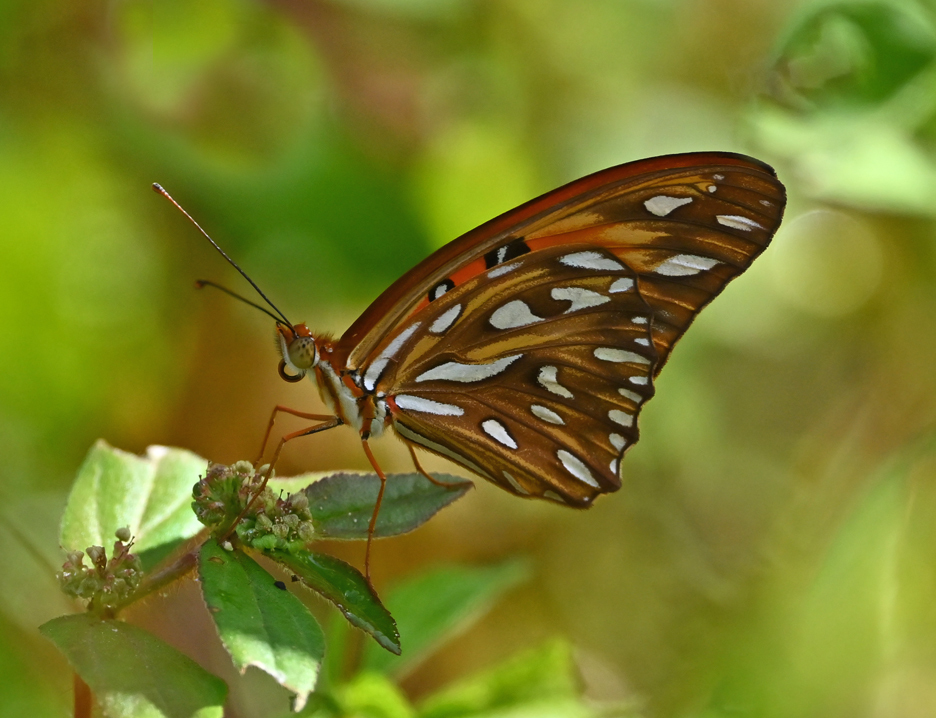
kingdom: Animalia
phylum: Arthropoda
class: Insecta
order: Lepidoptera
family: Nymphalidae
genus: Dione
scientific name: Dione vanillae
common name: Gulf fritillary
